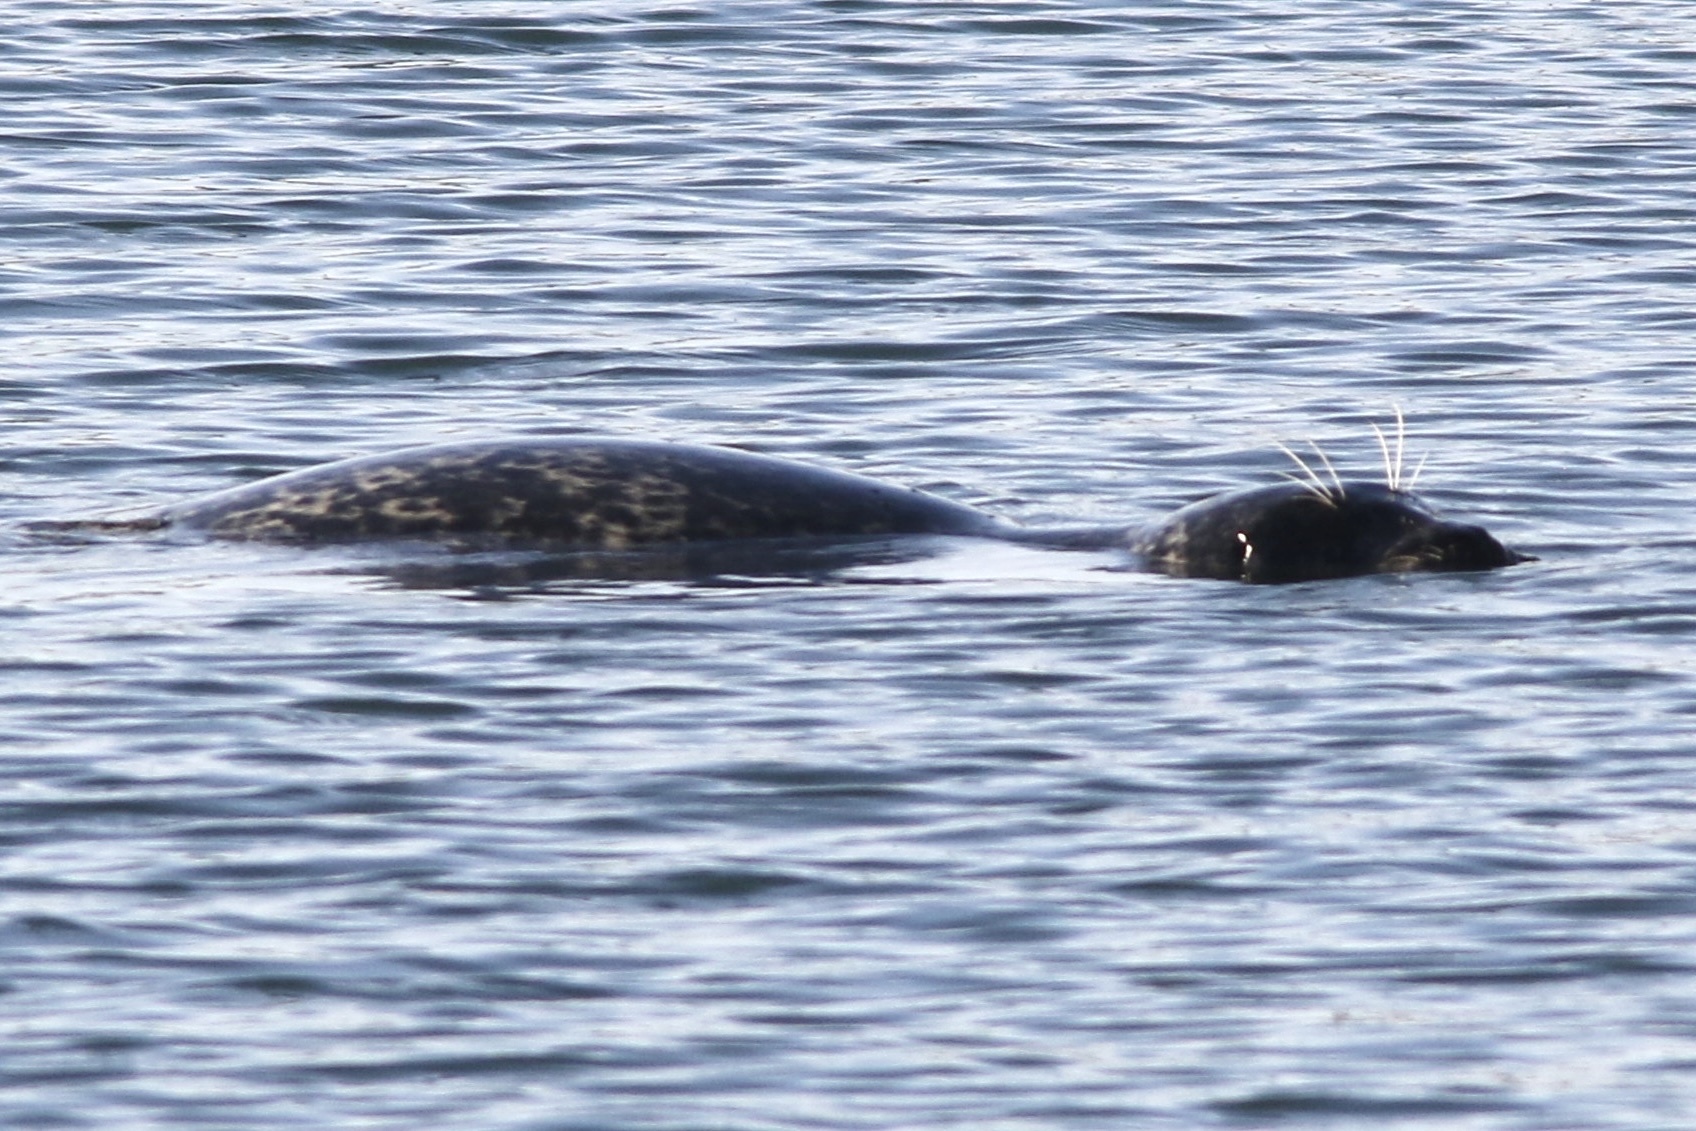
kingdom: Animalia
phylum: Chordata
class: Mammalia
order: Carnivora
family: Phocidae
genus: Phoca
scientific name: Phoca vitulina
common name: Harbor seal
